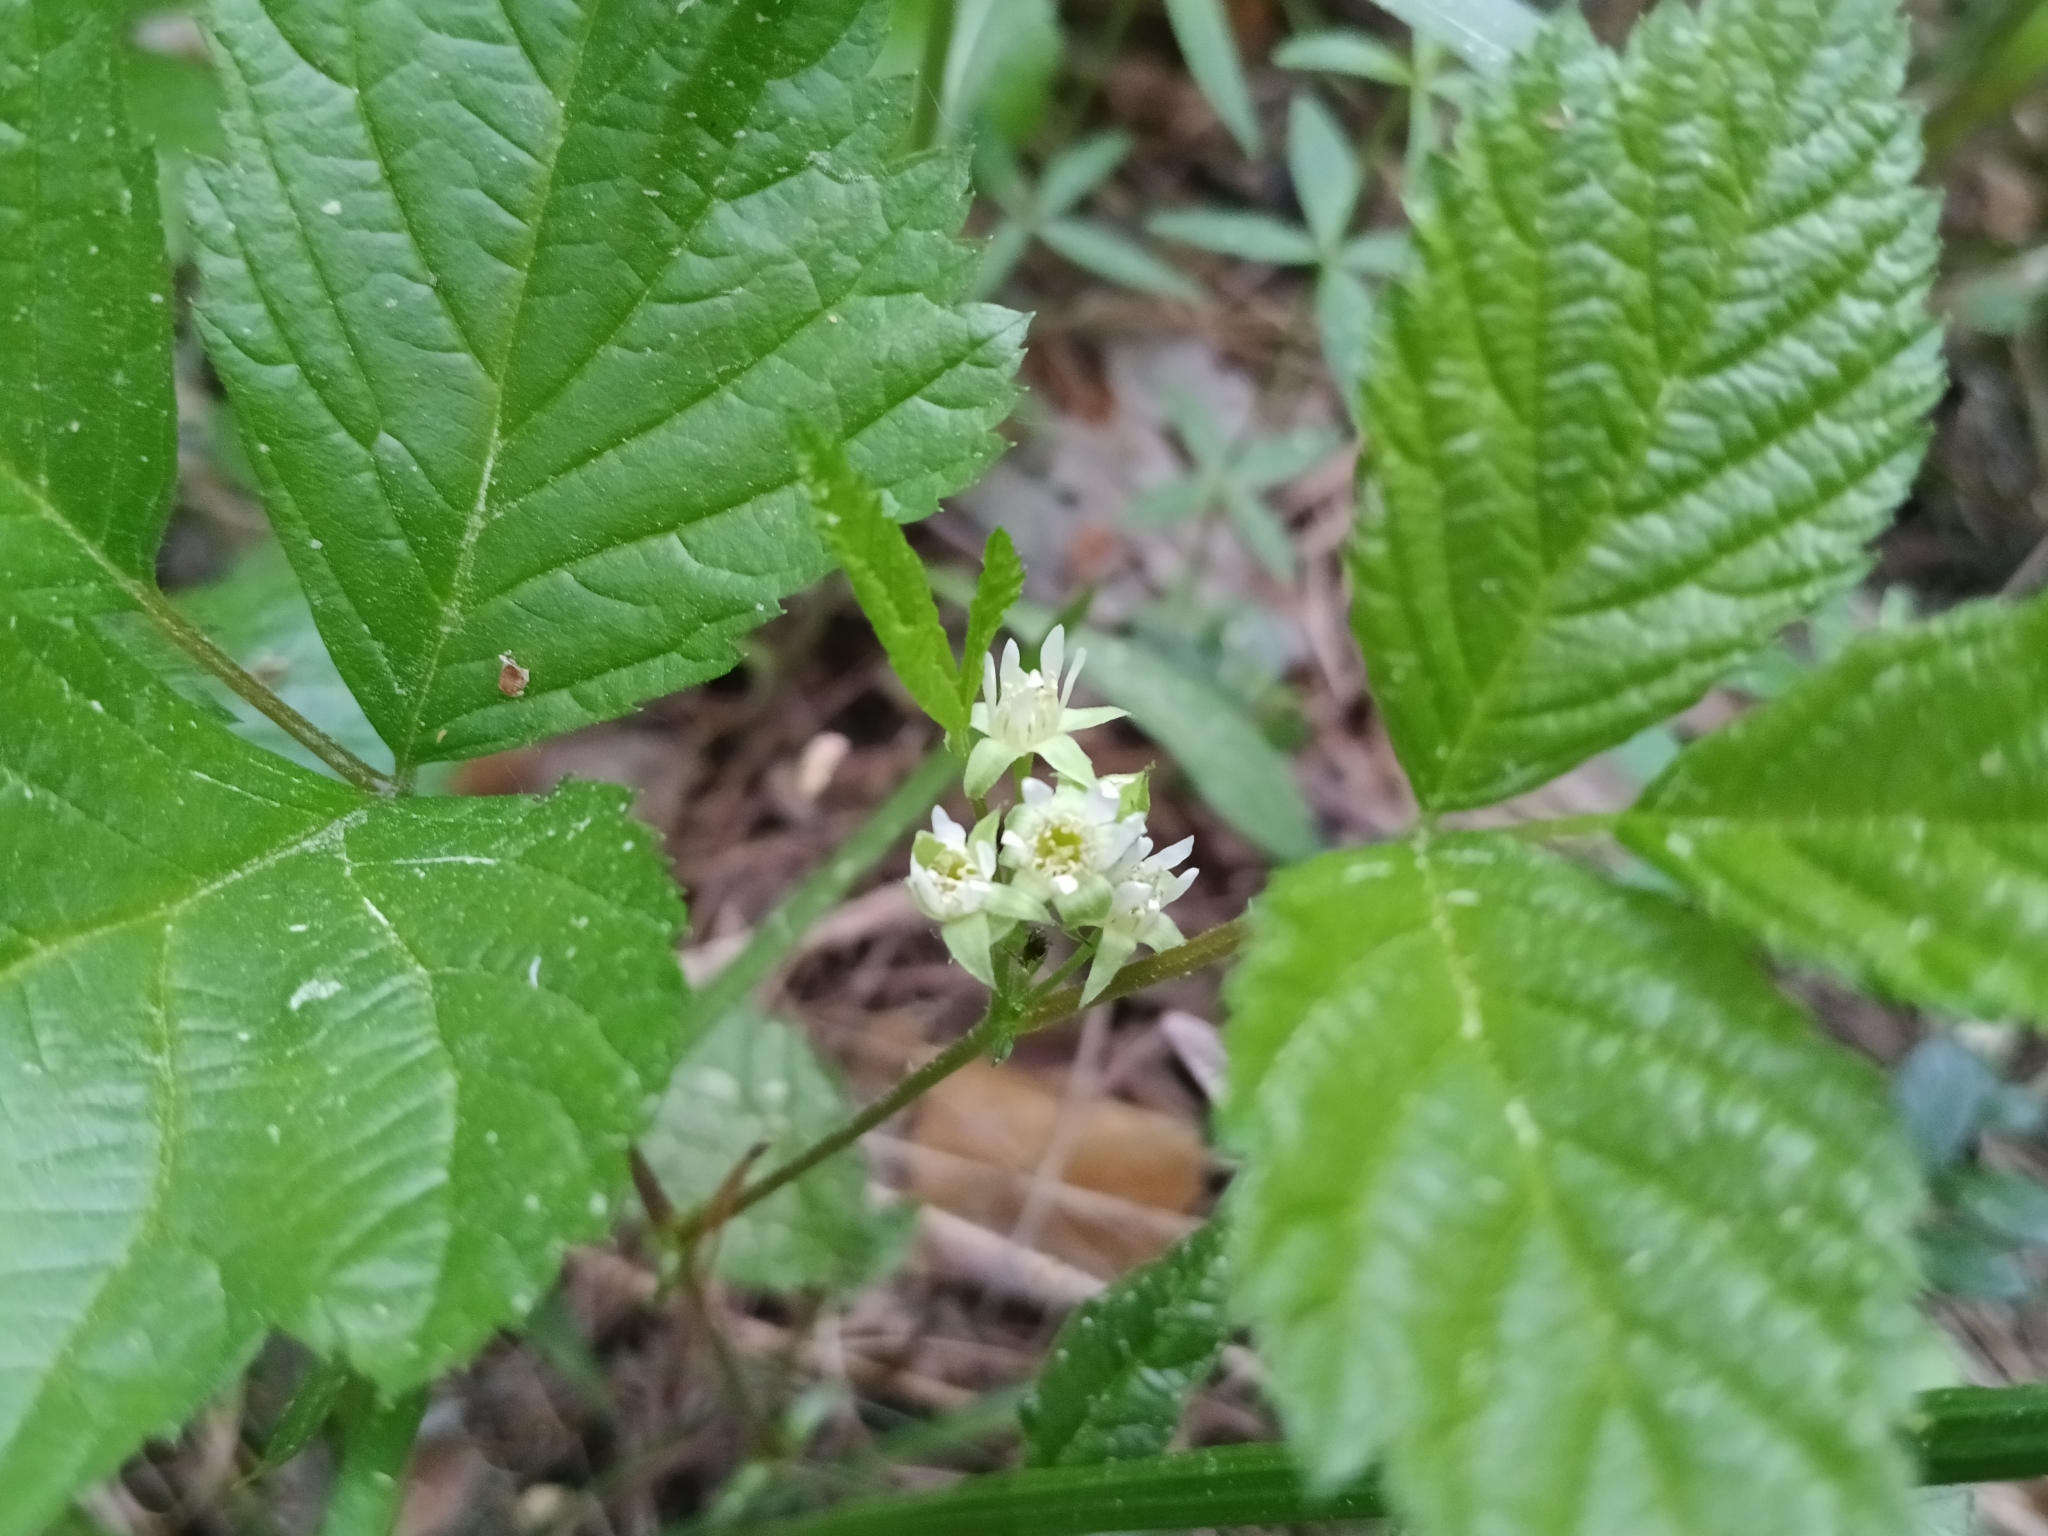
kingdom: Plantae
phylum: Tracheophyta
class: Magnoliopsida
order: Rosales
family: Rosaceae
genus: Rubus
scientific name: Rubus saxatilis
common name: Stone bramble
